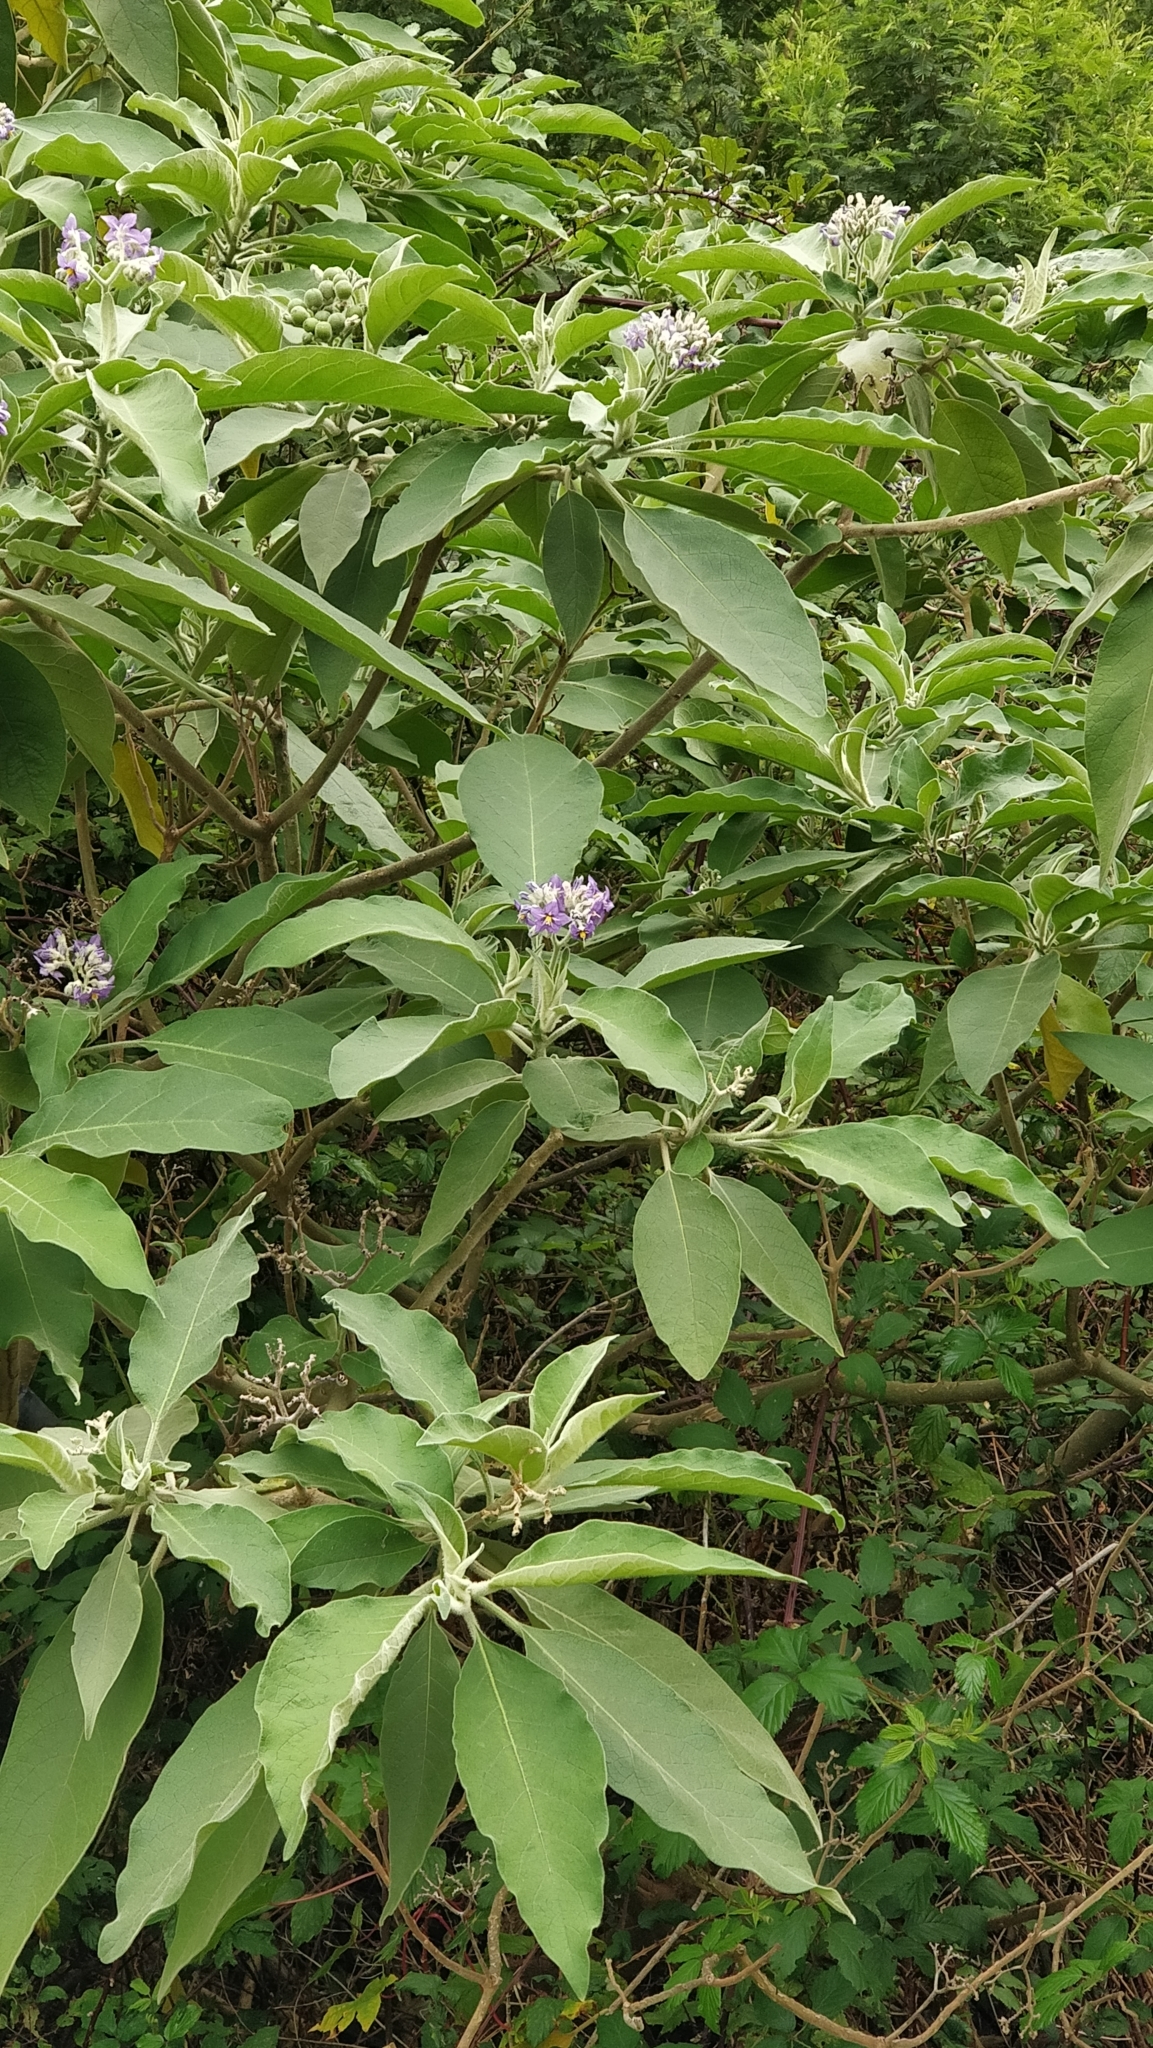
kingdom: Plantae
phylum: Tracheophyta
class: Magnoliopsida
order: Solanales
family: Solanaceae
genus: Solanum
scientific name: Solanum mauritianum
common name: Earleaf nightshade
